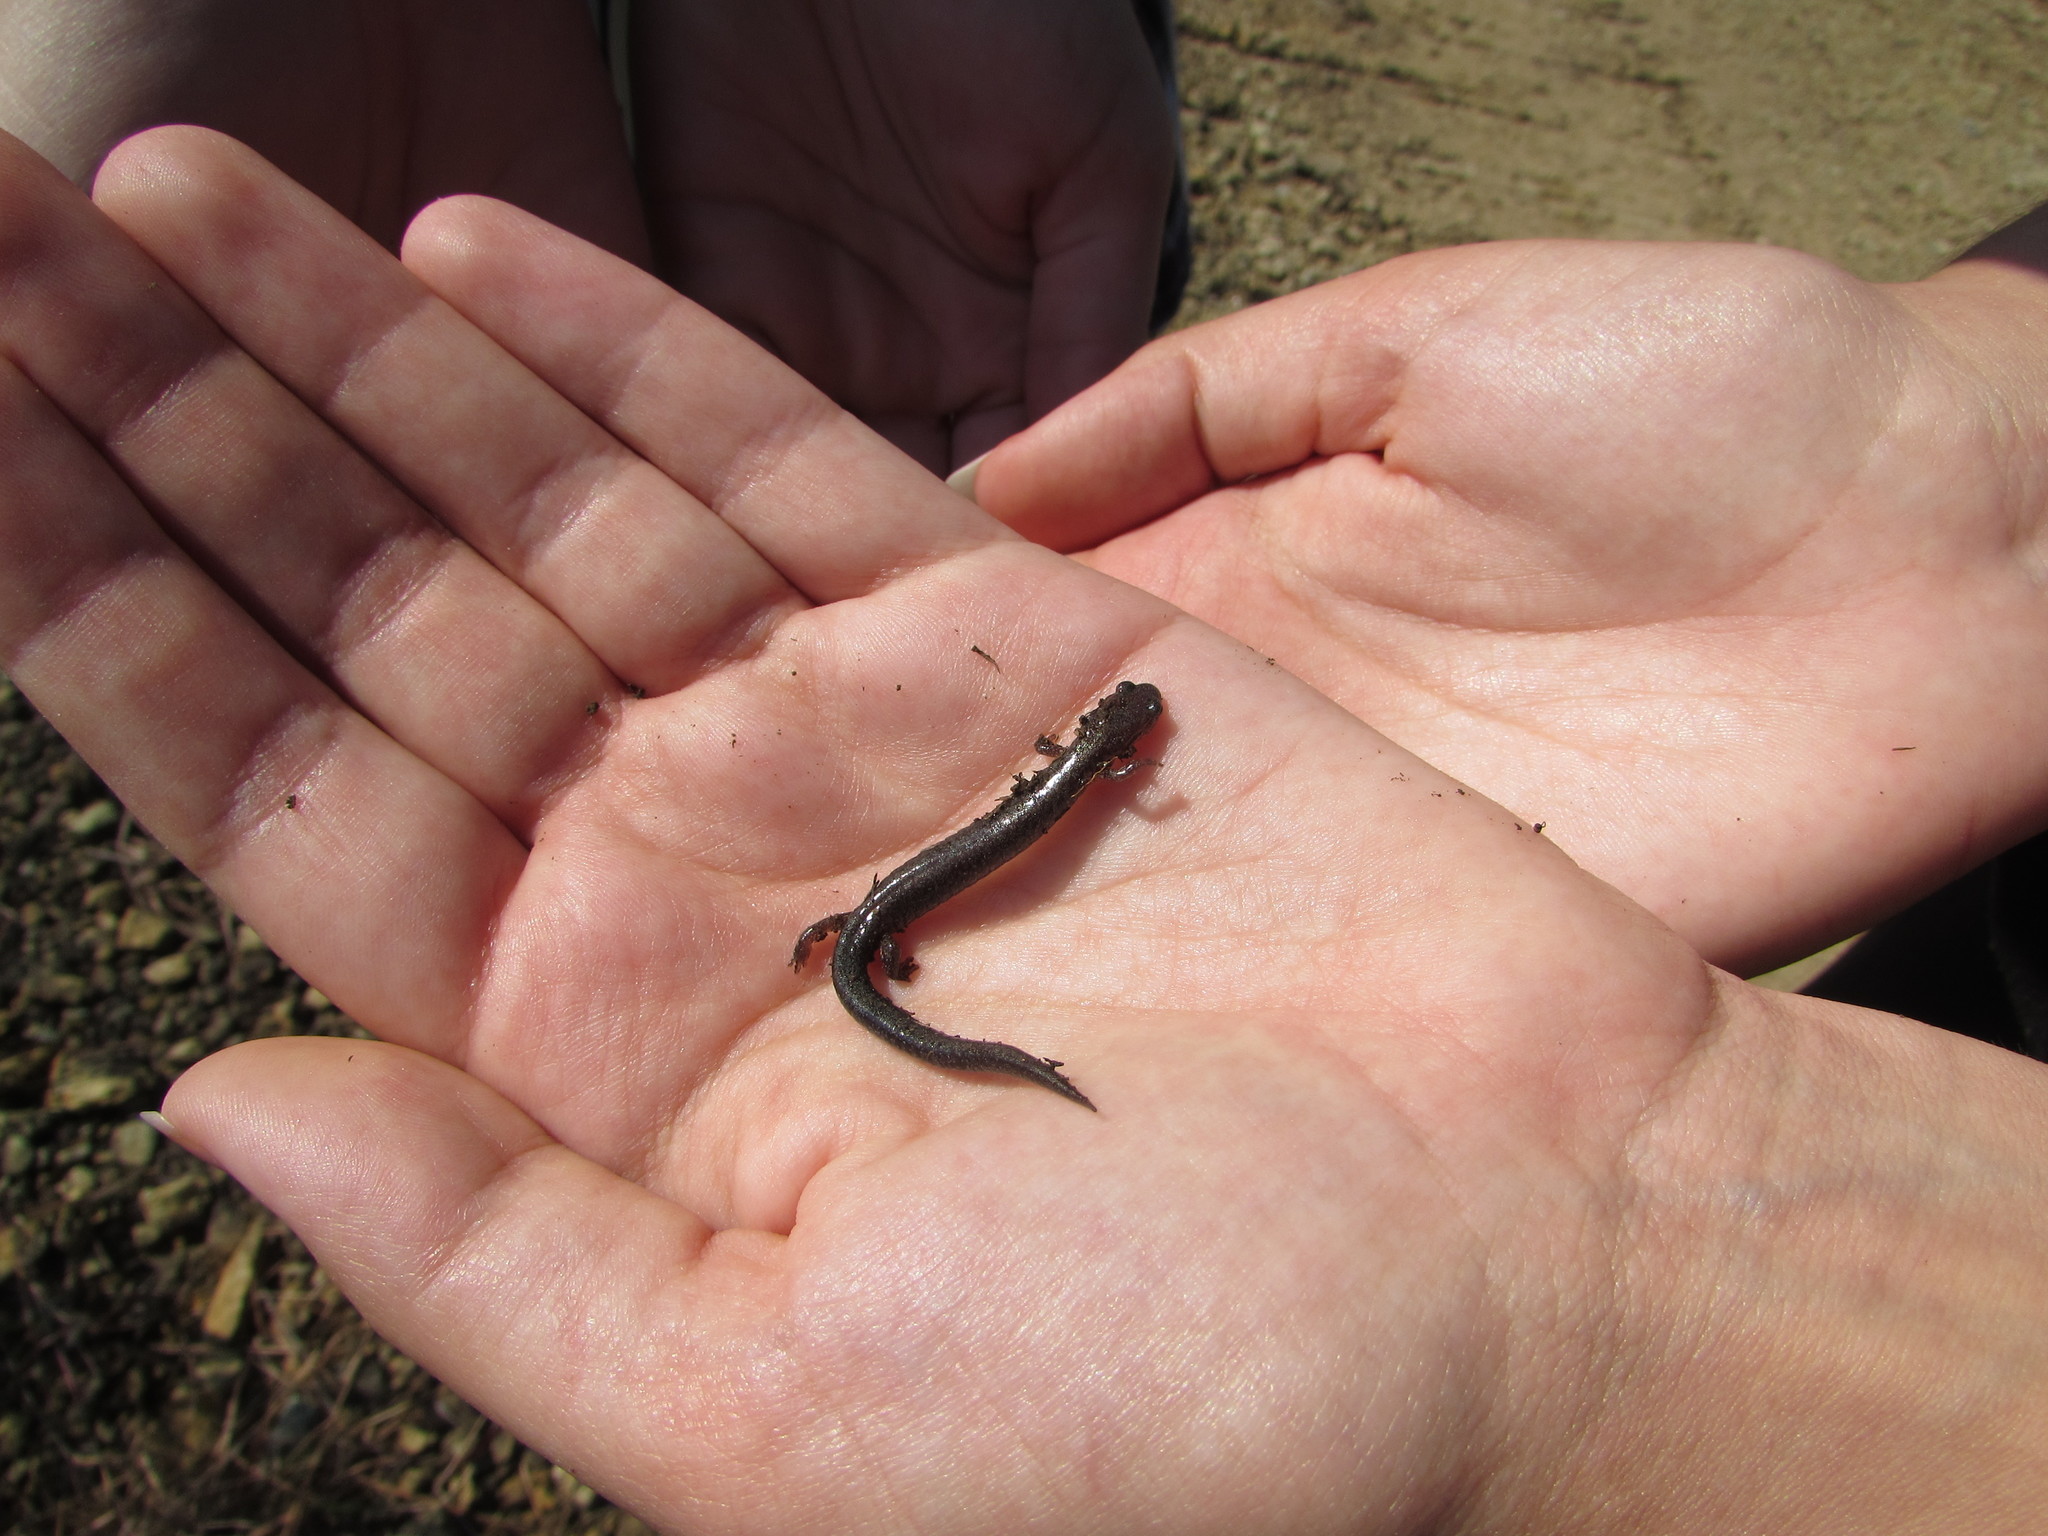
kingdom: Animalia
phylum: Chordata
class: Amphibia
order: Caudata
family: Plethodontidae
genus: Plethodon
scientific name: Plethodon cinereus
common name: Redback salamander
